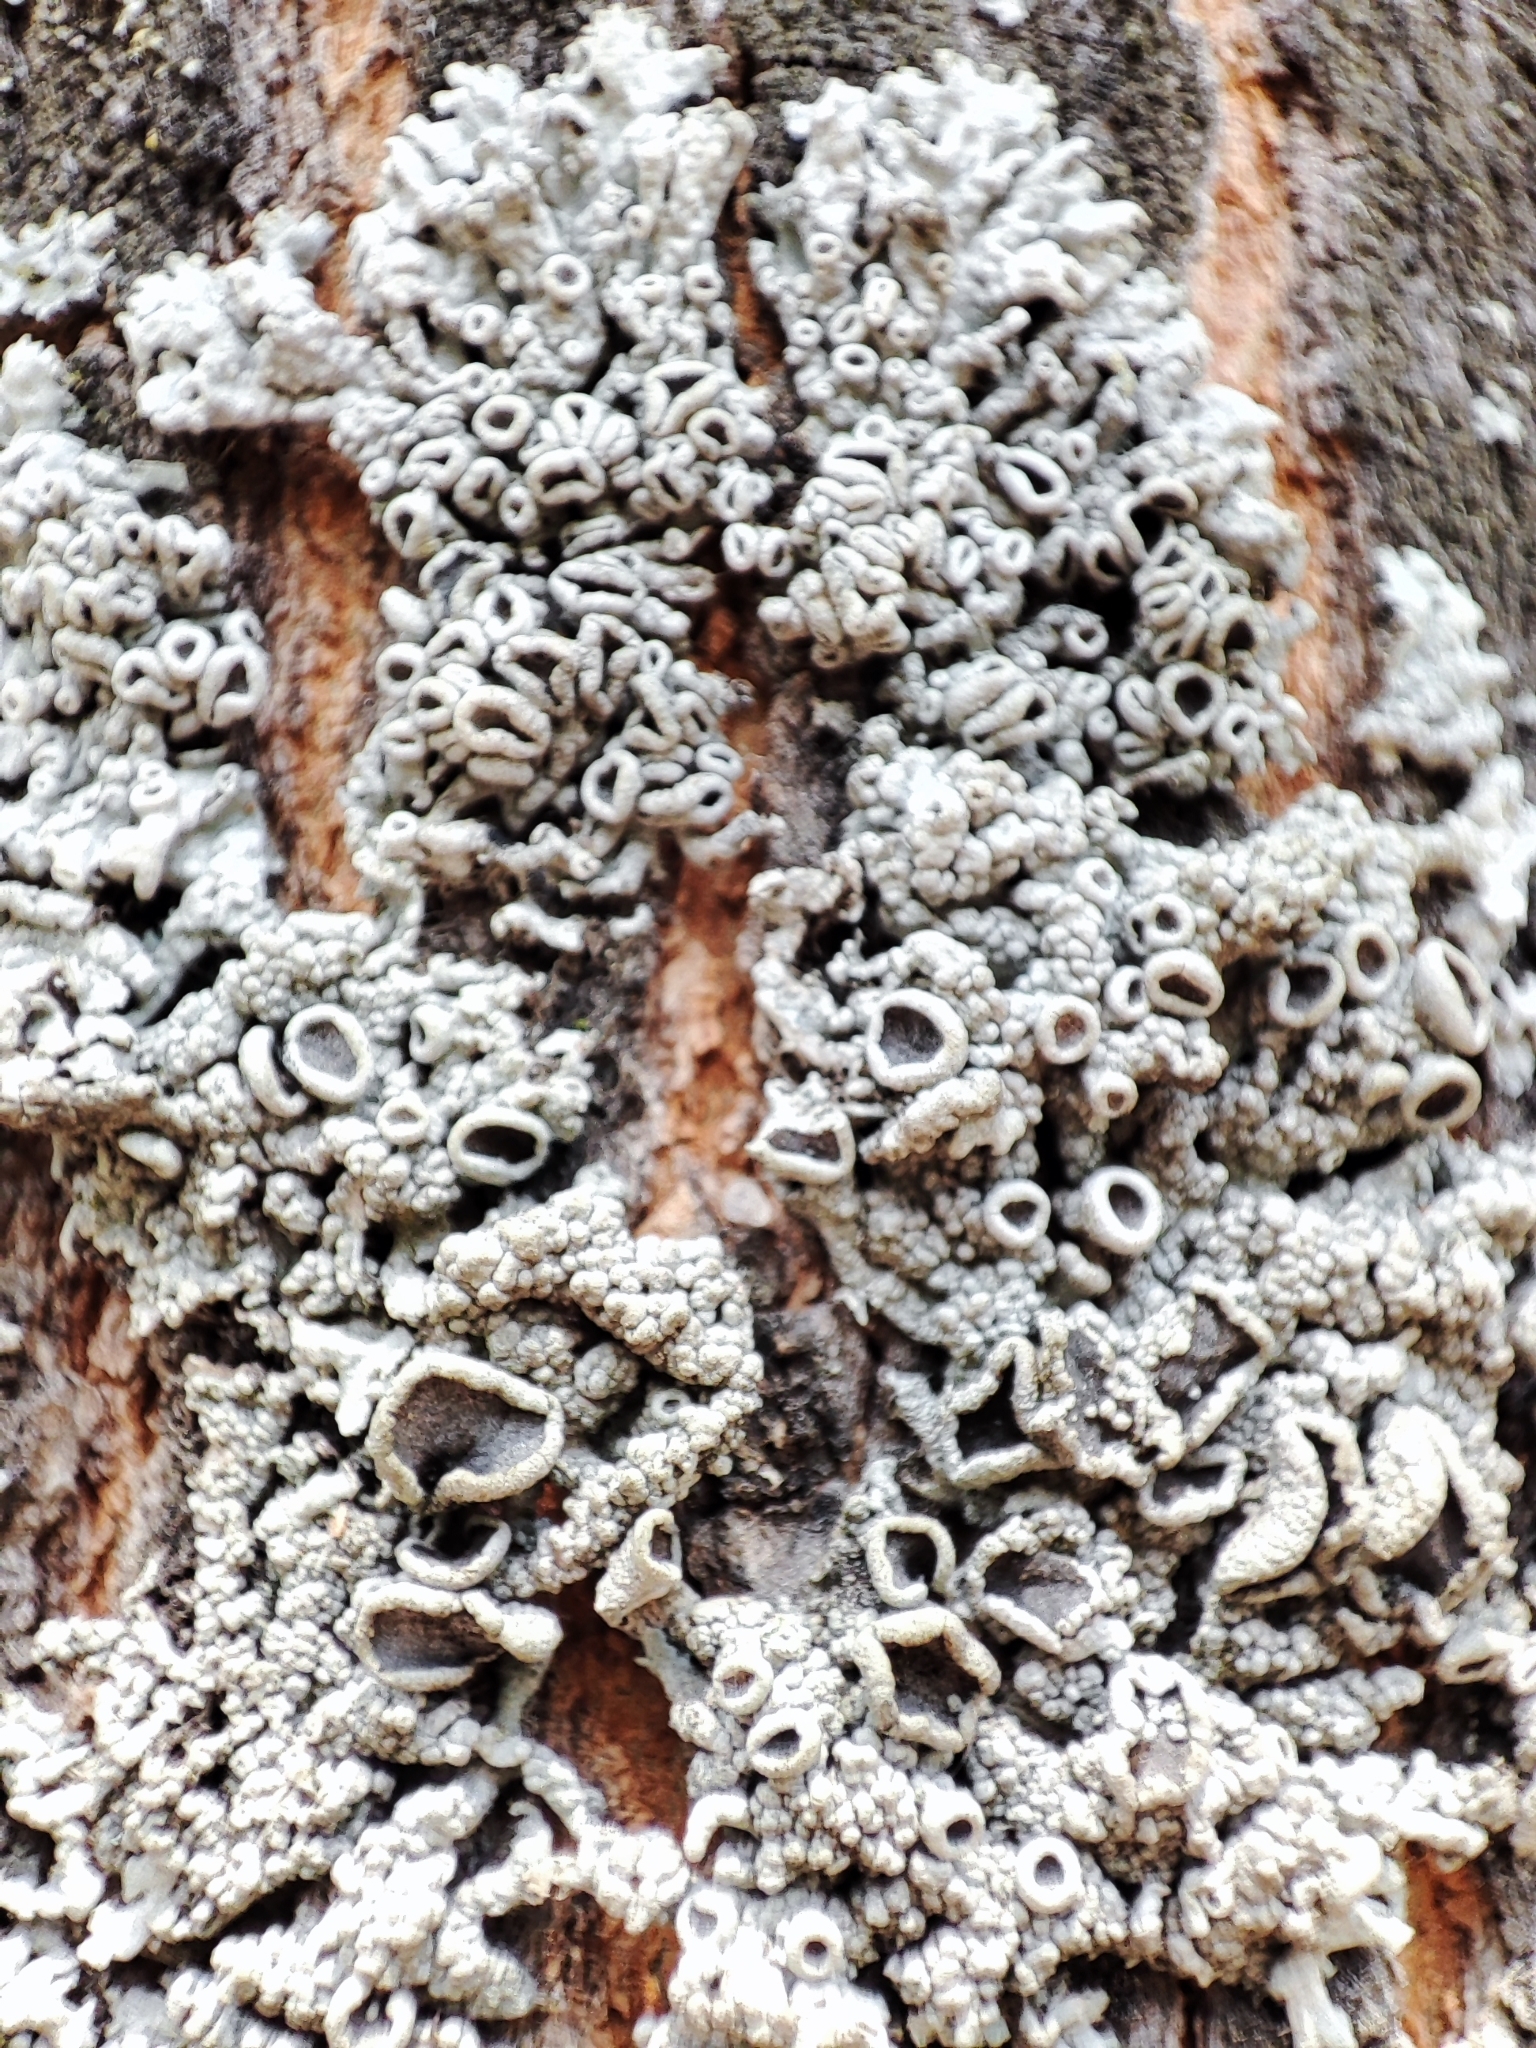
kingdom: Fungi
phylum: Ascomycota
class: Lecanoromycetes
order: Caliciales
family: Physciaceae
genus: Physcia
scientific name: Physcia stellaris
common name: Star rosette lichen
